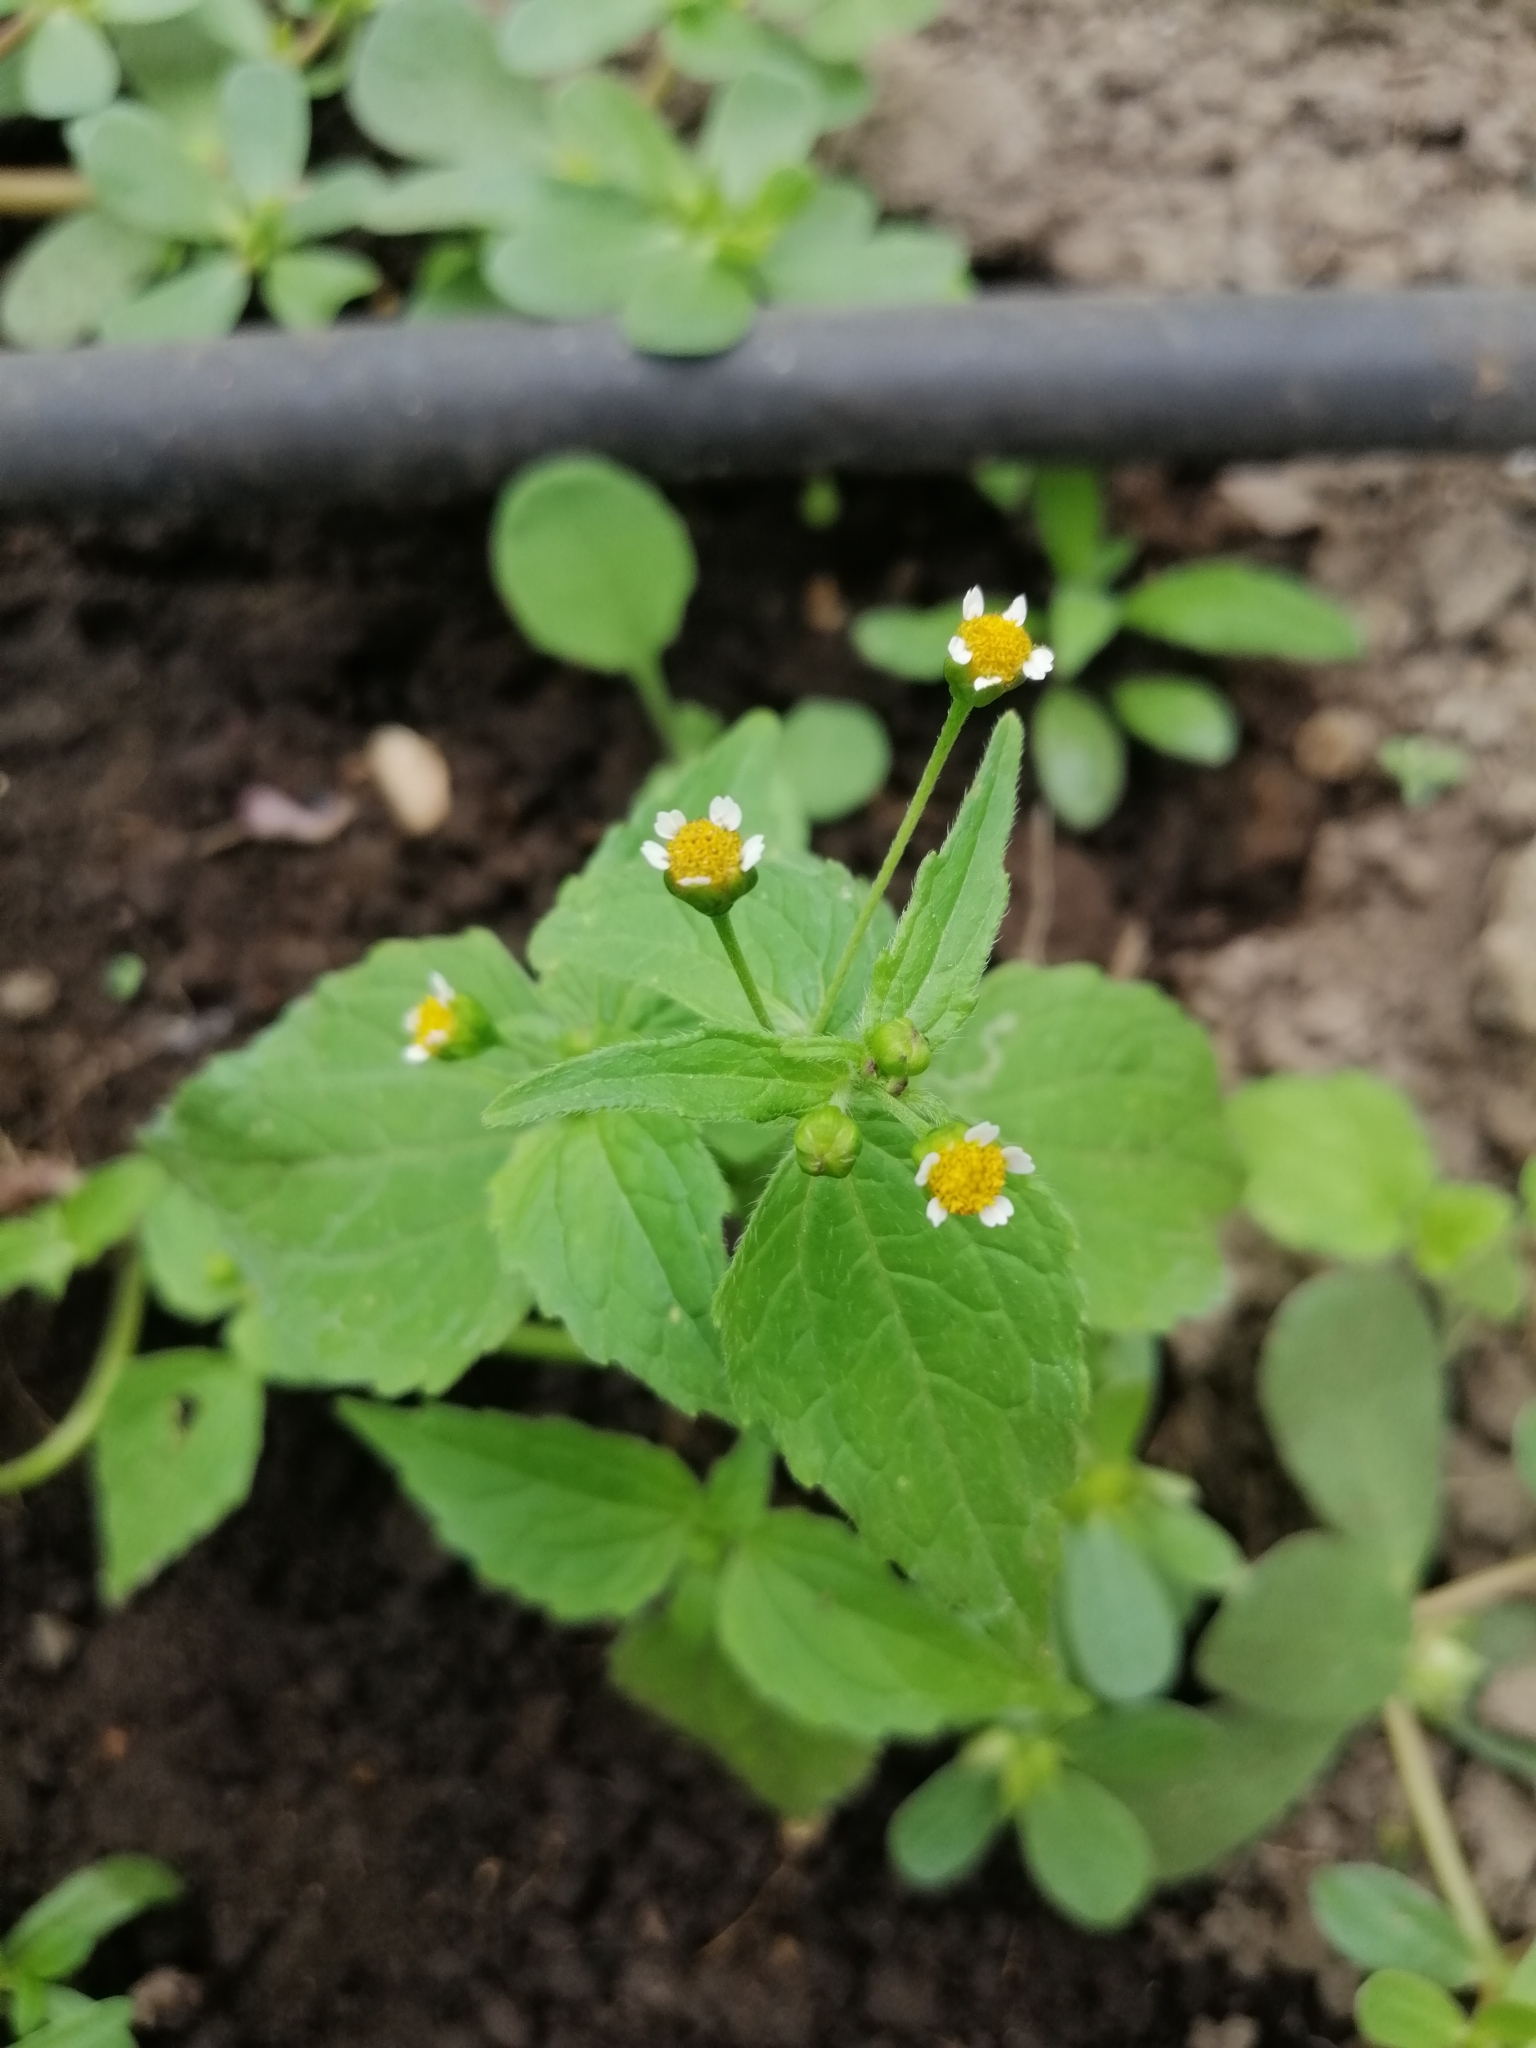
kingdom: Plantae
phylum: Tracheophyta
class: Magnoliopsida
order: Asterales
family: Asteraceae
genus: Galinsoga
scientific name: Galinsoga parviflora
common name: Gallant soldier
